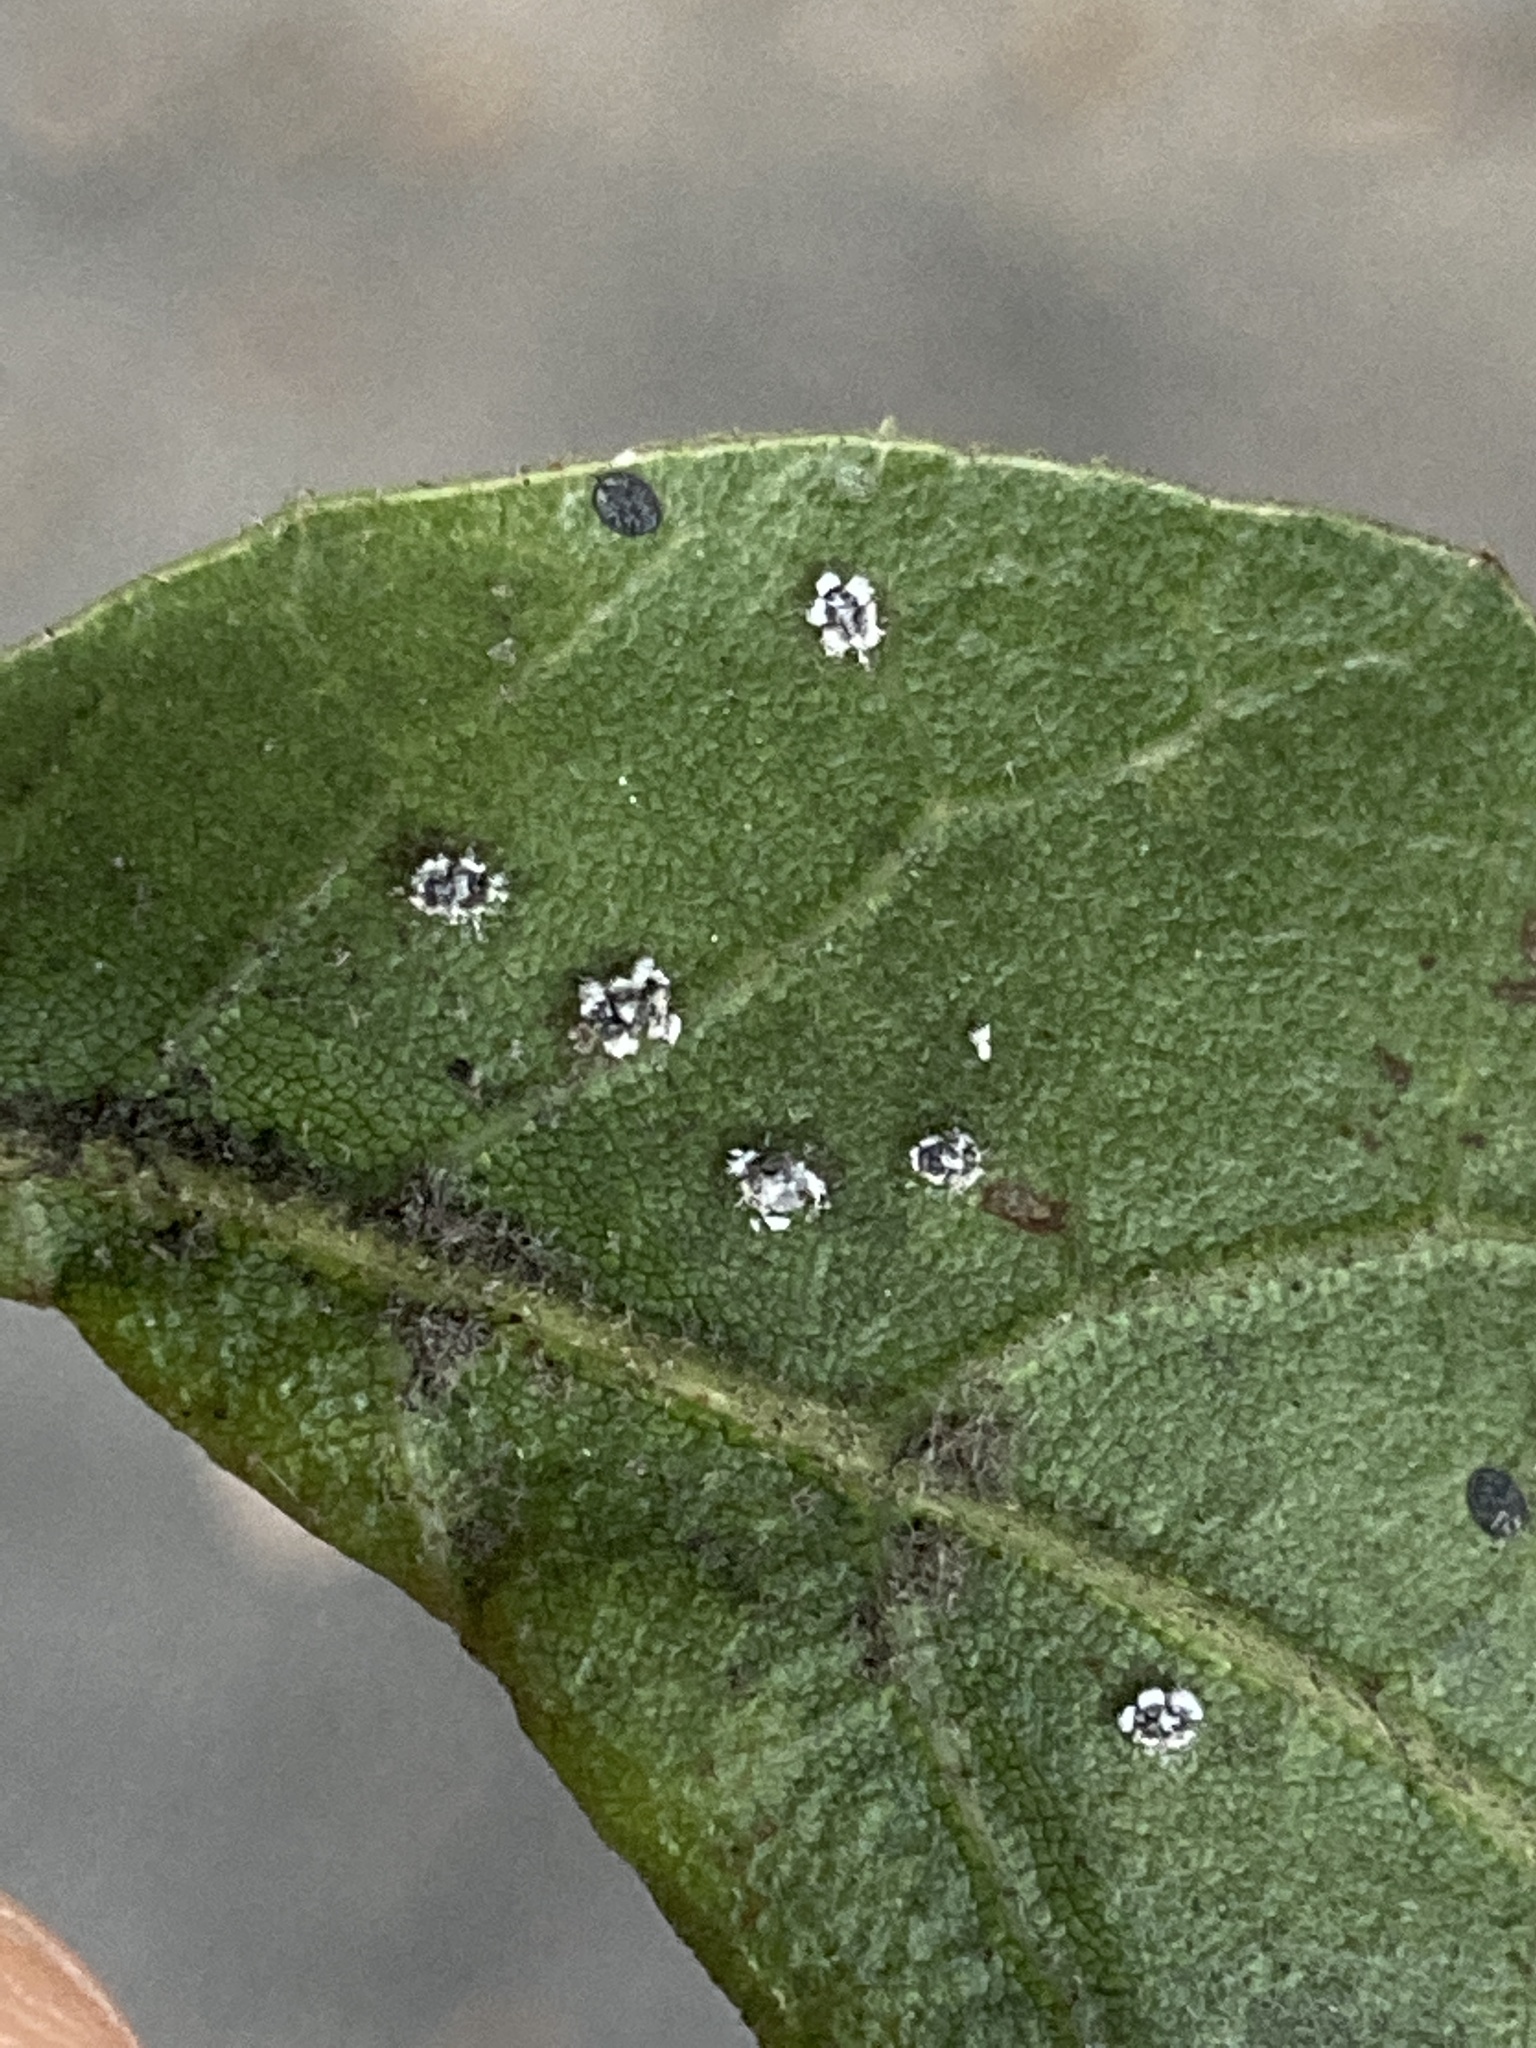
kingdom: Animalia
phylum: Arthropoda
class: Insecta
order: Hemiptera
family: Aleyrodidae
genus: Aleuroplatus
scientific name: Aleuroplatus coronata
